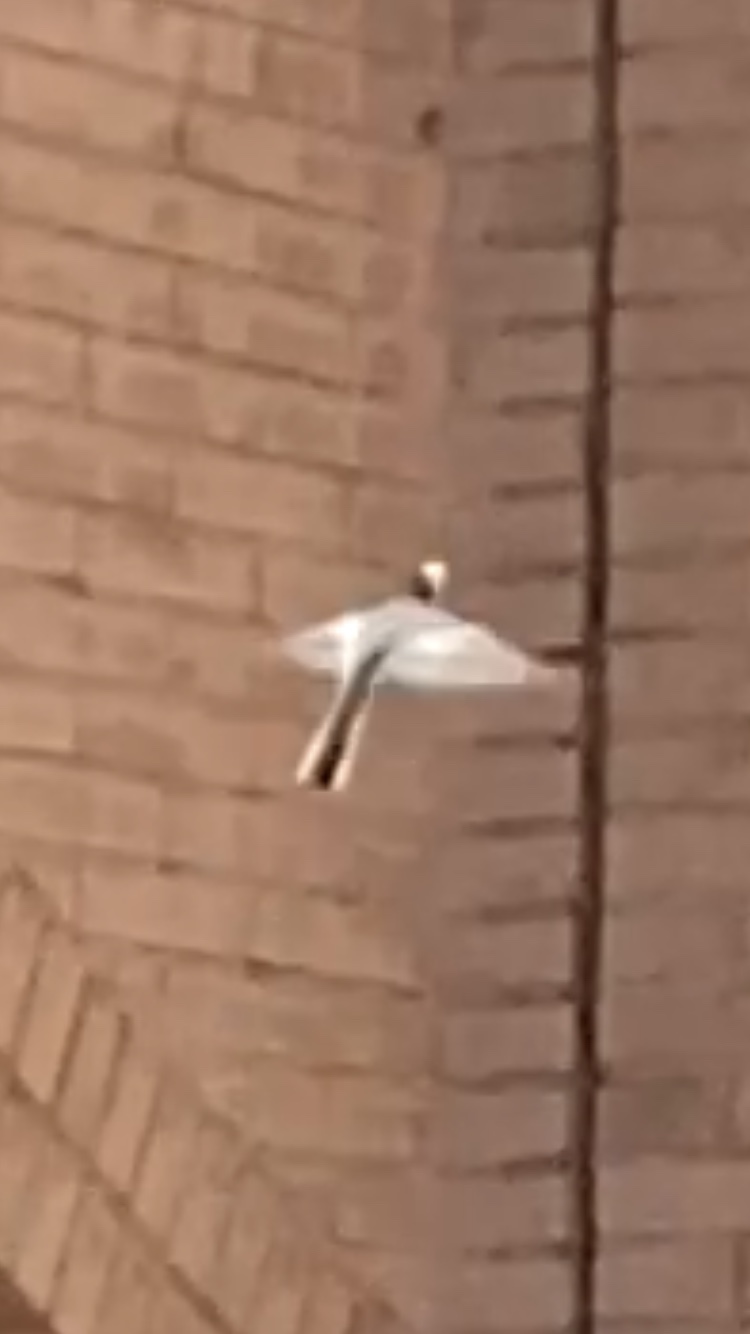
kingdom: Animalia
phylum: Chordata
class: Aves
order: Passeriformes
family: Motacillidae
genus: Motacilla
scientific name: Motacilla alba
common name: White wagtail
